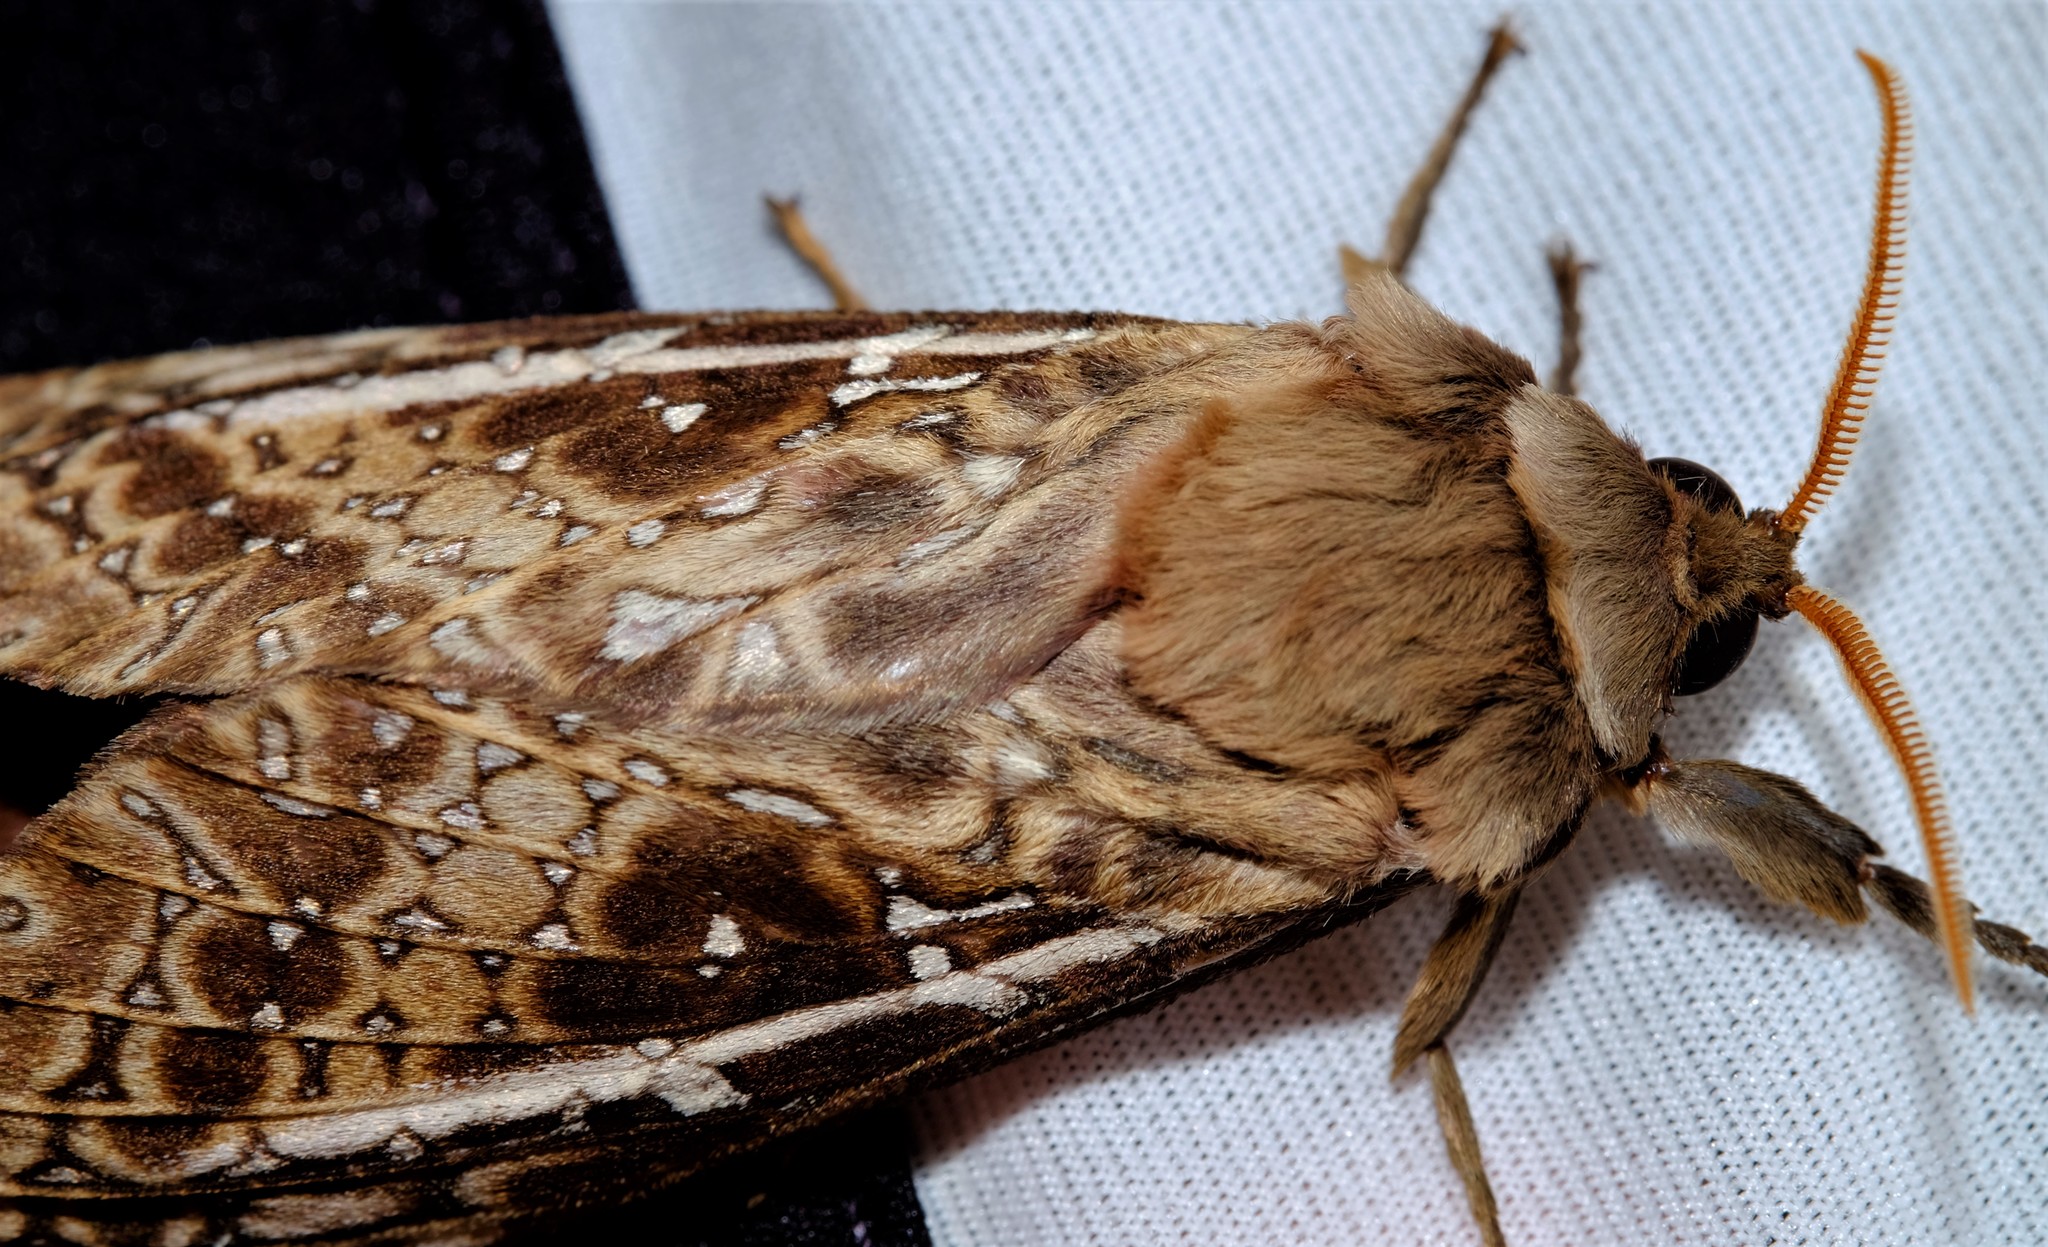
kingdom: Animalia
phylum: Arthropoda
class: Insecta
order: Lepidoptera
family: Hepialidae
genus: Oxycanus
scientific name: Oxycanus australis
